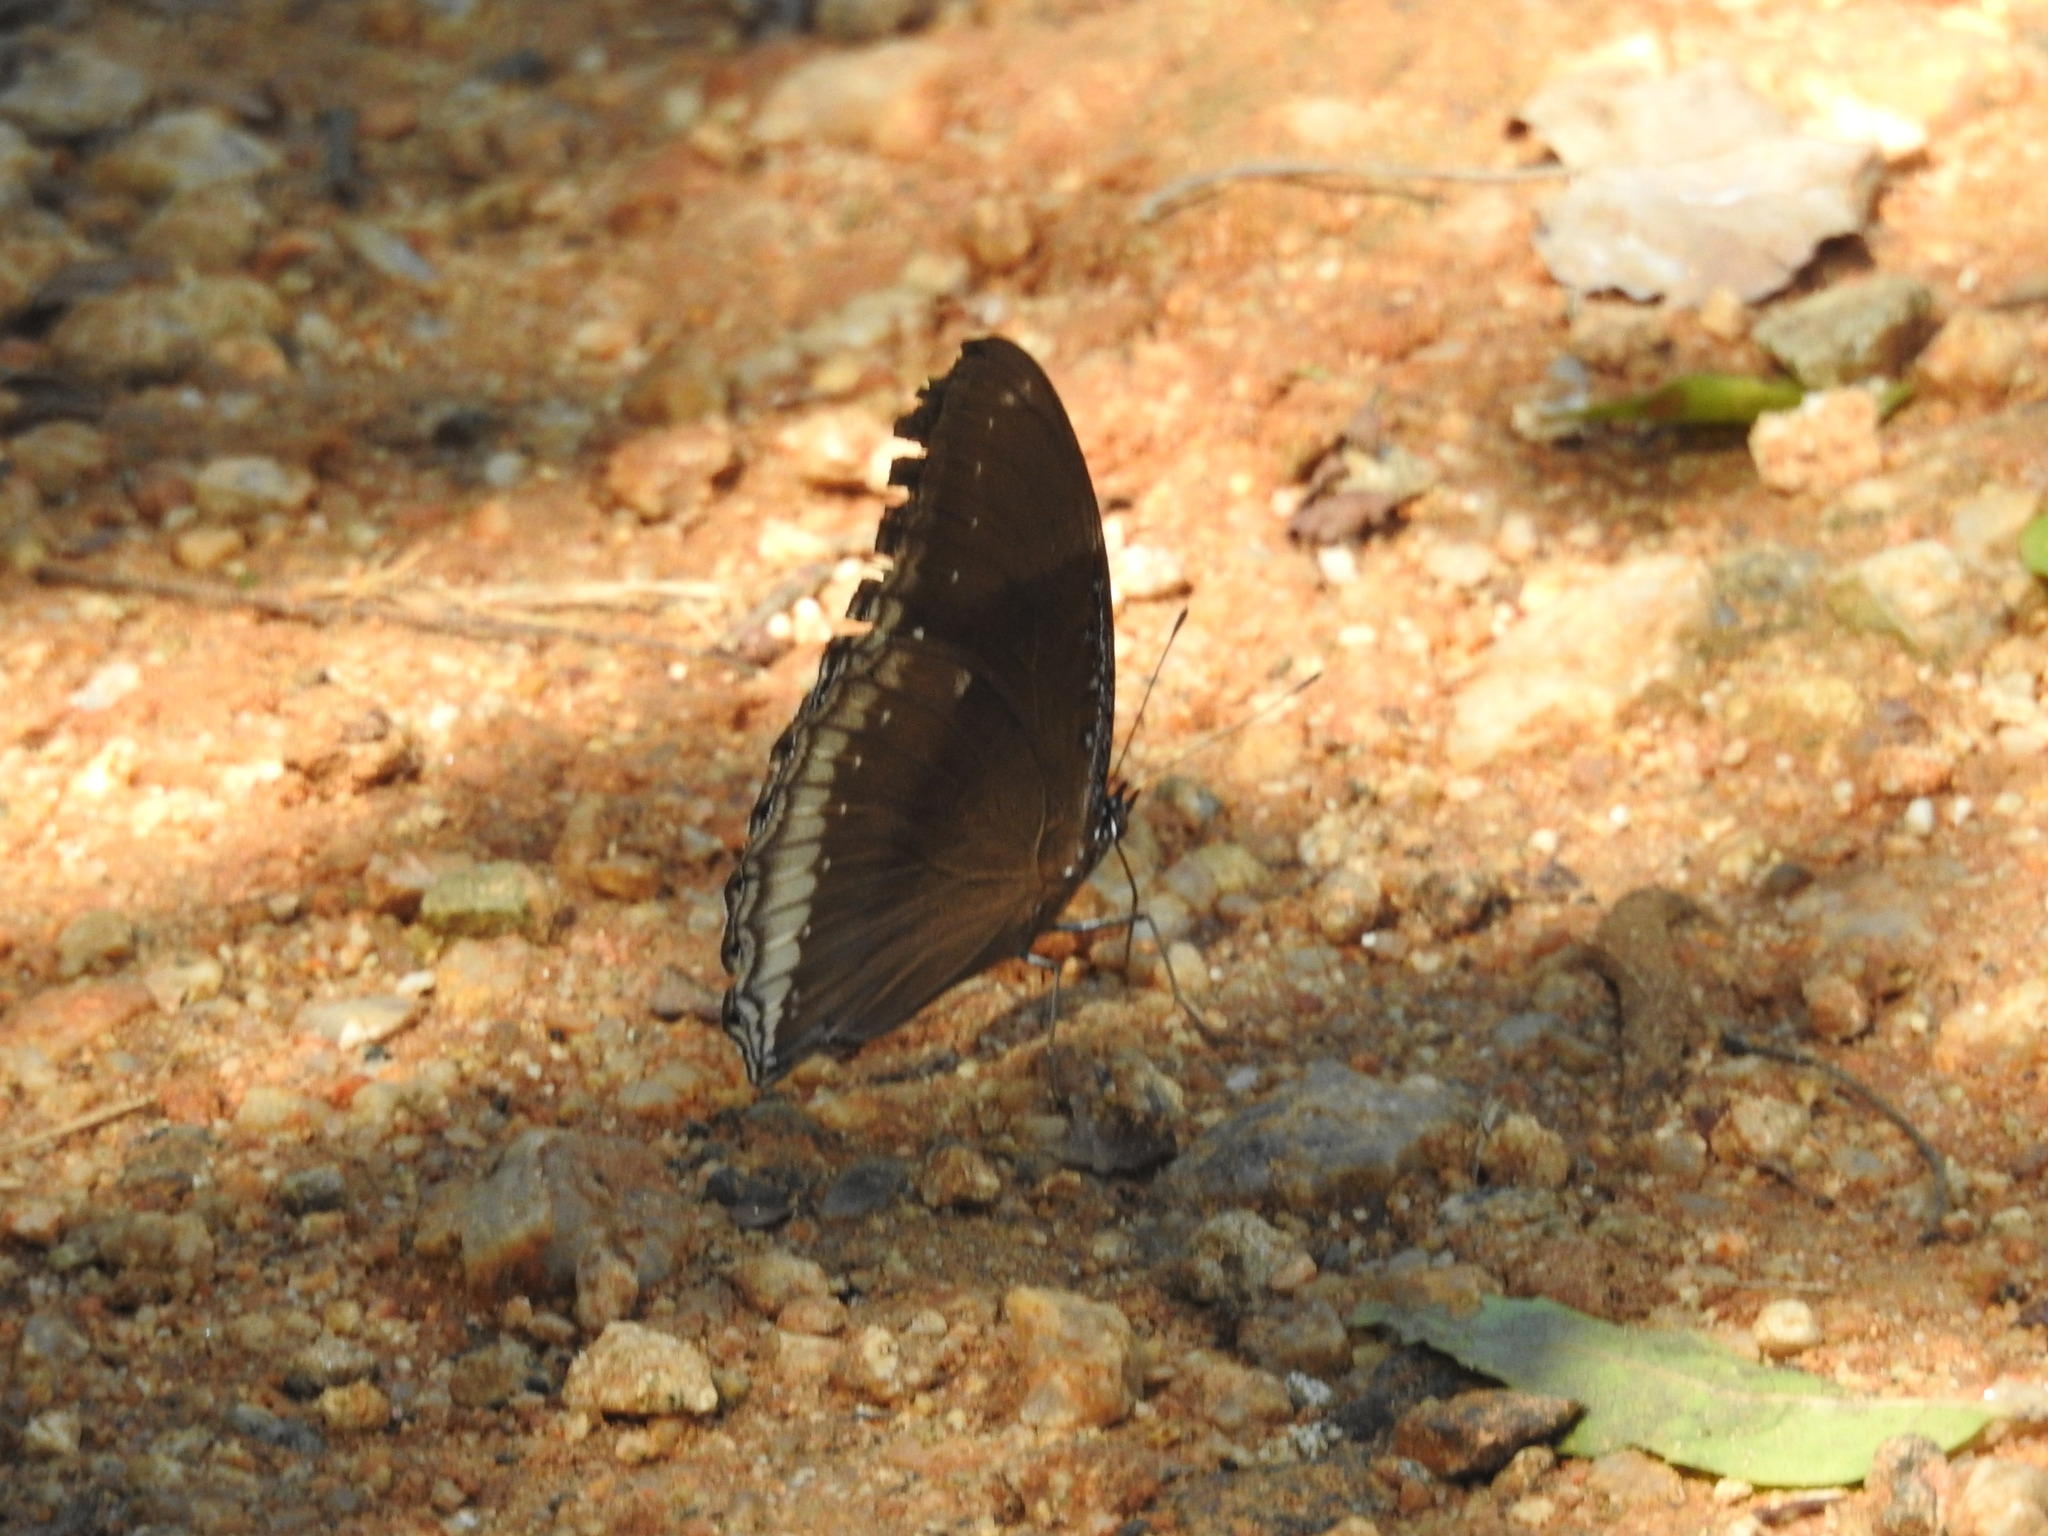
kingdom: Animalia
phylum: Arthropoda
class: Insecta
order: Lepidoptera
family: Nymphalidae
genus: Hypolimnas
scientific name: Hypolimnas bolina
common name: Great eggfly
